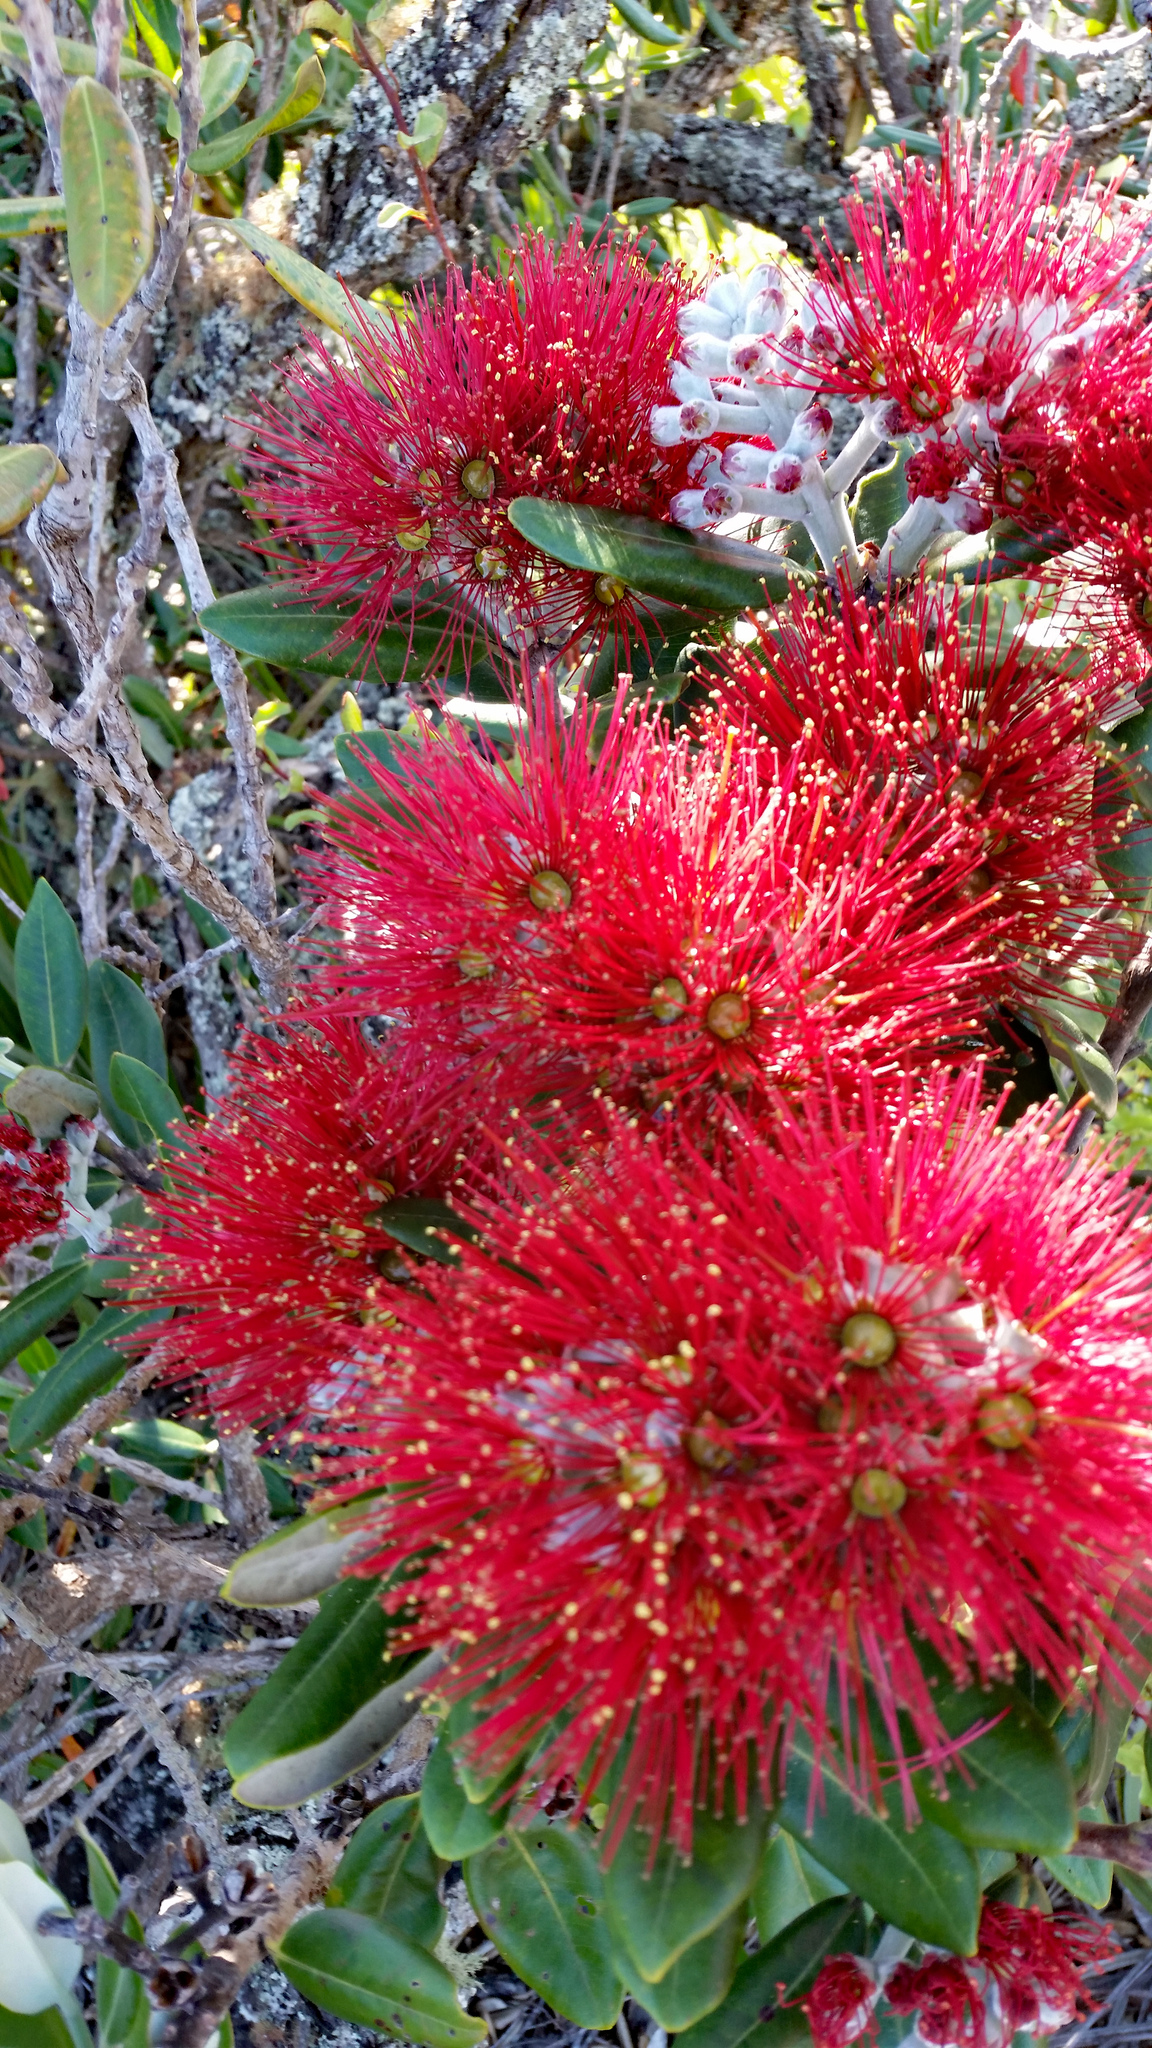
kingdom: Plantae
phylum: Tracheophyta
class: Magnoliopsida
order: Myrtales
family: Myrtaceae
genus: Metrosideros
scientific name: Metrosideros excelsa
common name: New zealand christmastree
